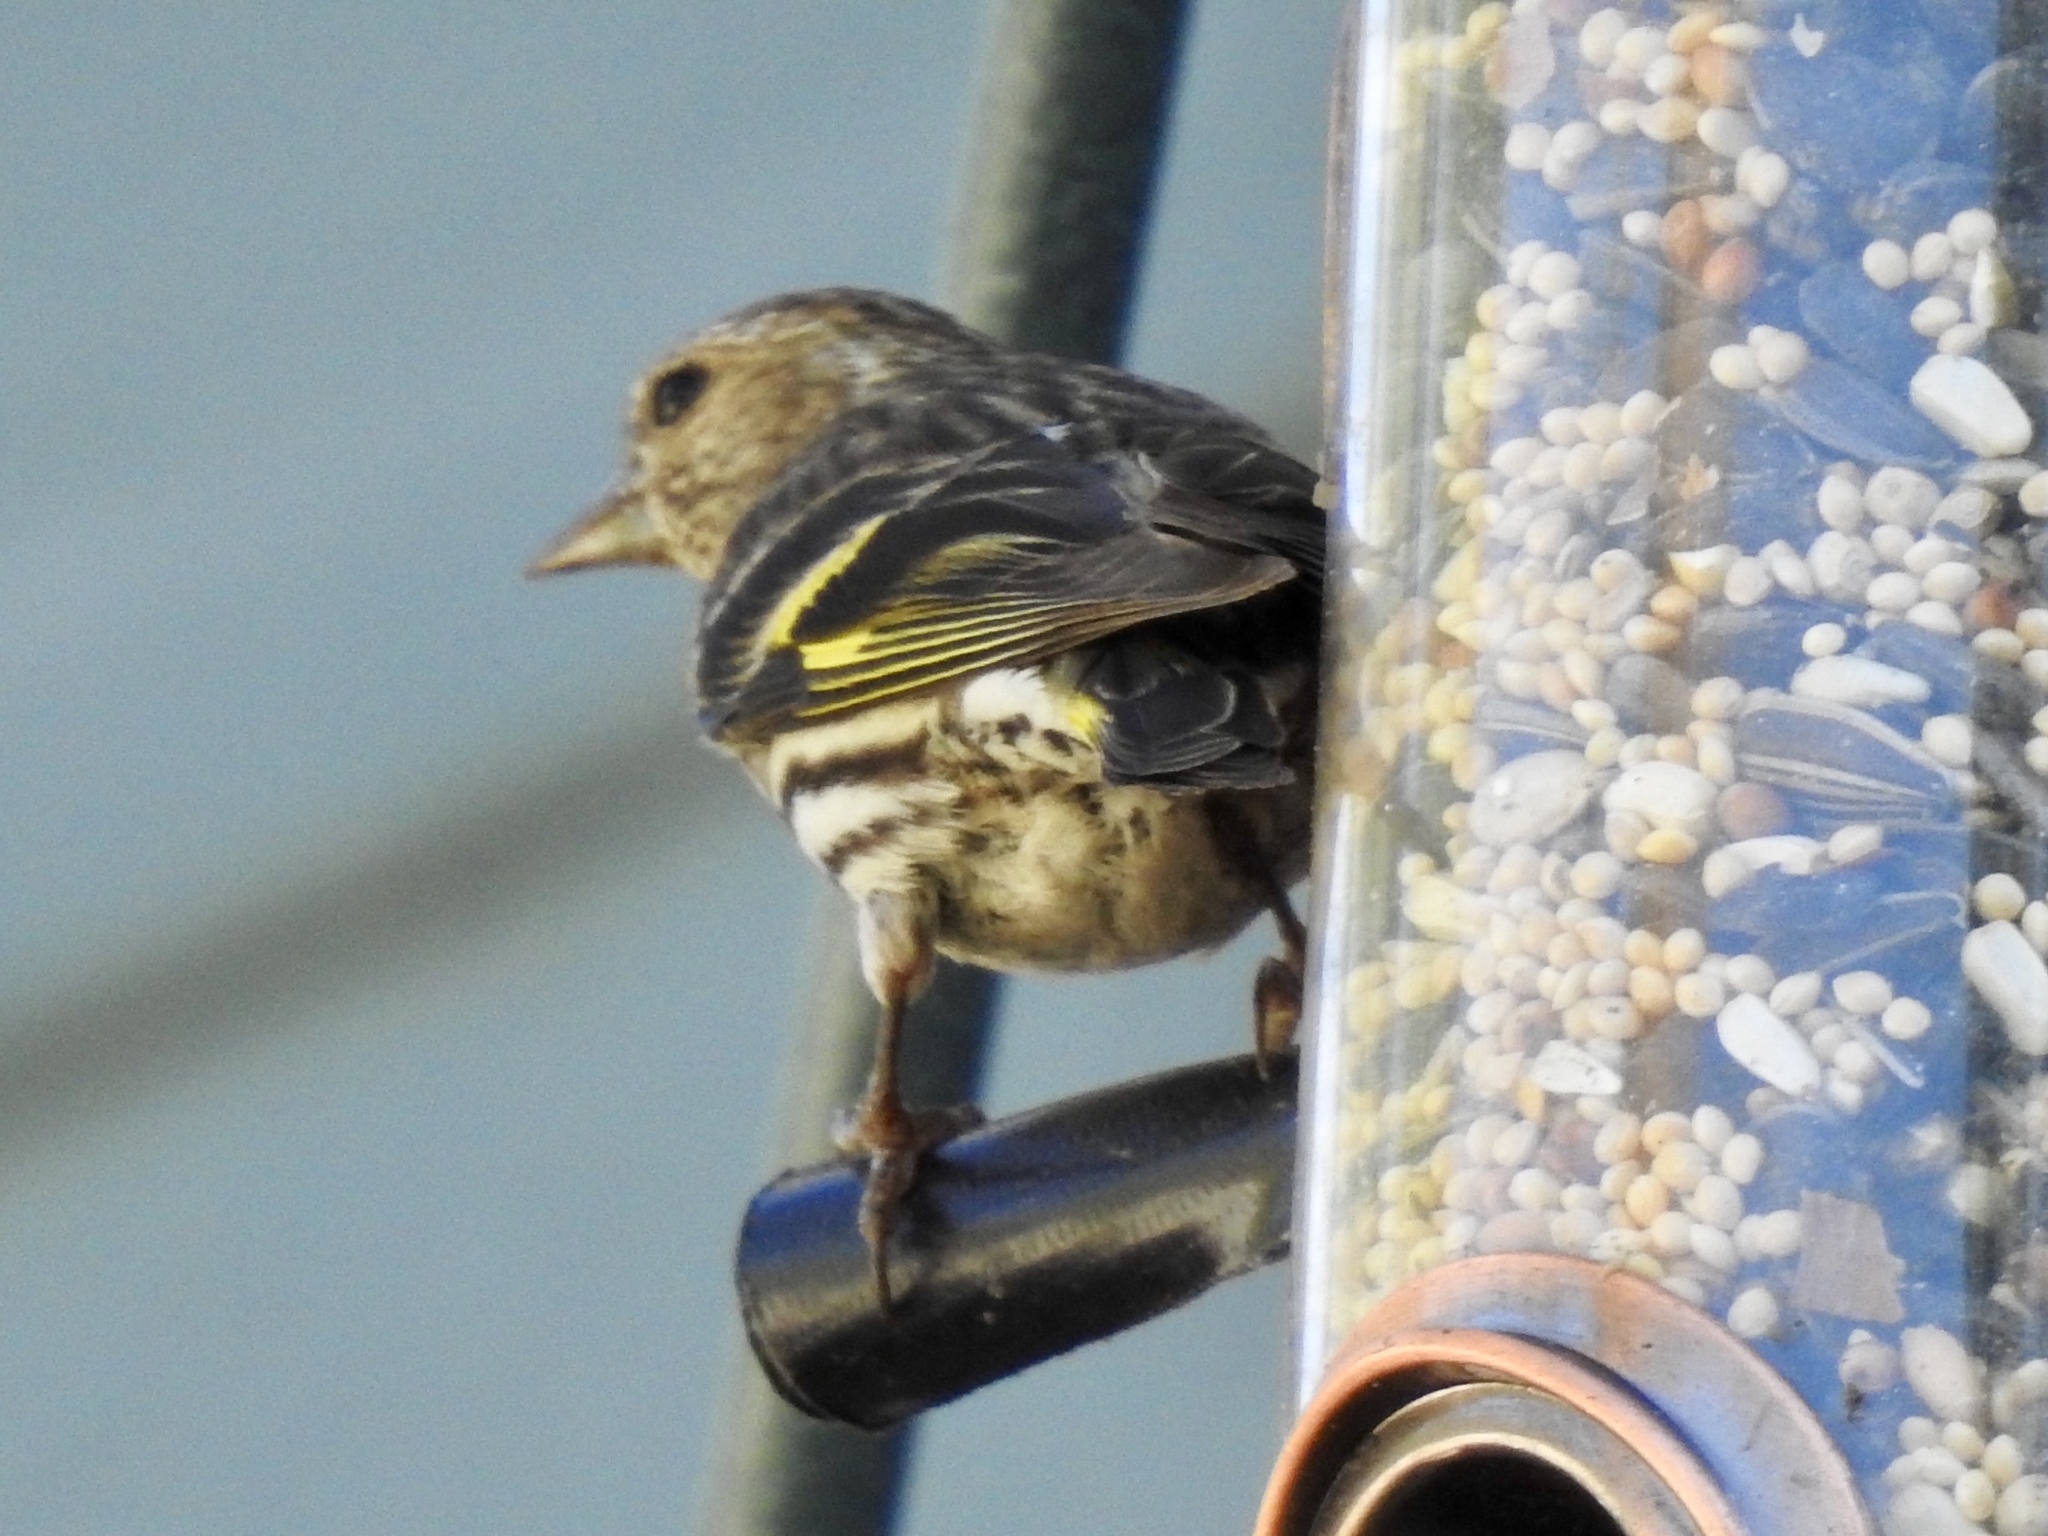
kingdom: Animalia
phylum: Chordata
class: Aves
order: Passeriformes
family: Fringillidae
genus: Spinus
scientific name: Spinus pinus
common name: Pine siskin
